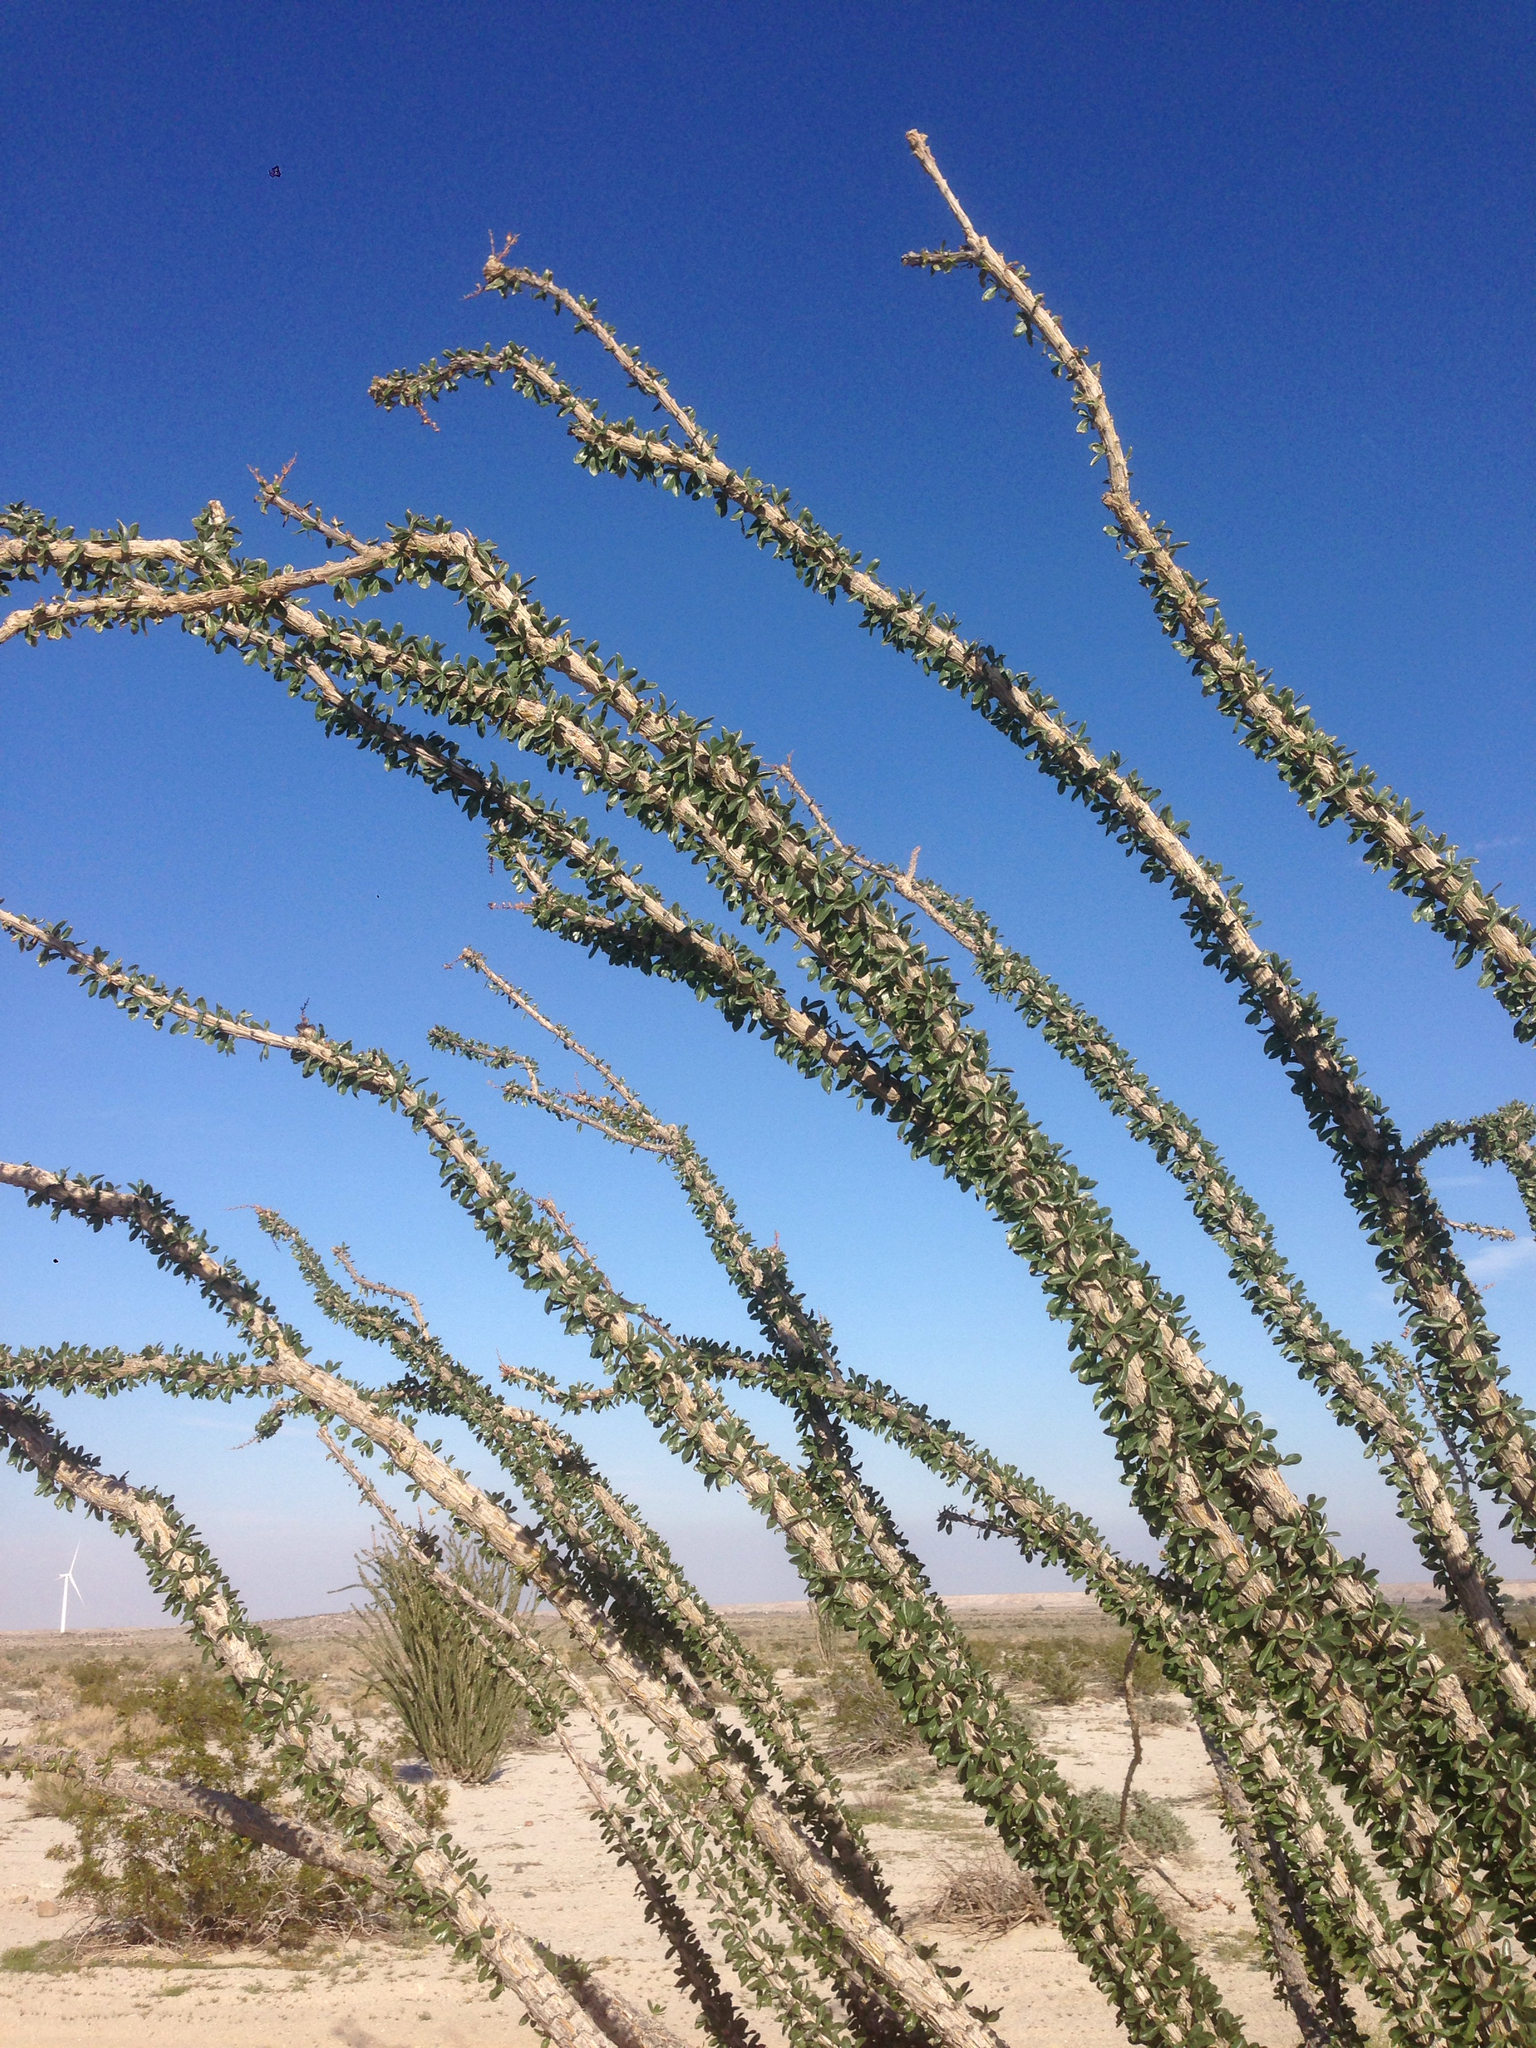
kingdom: Plantae
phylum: Tracheophyta
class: Magnoliopsida
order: Ericales
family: Fouquieriaceae
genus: Fouquieria
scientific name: Fouquieria splendens
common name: Vine-cactus
